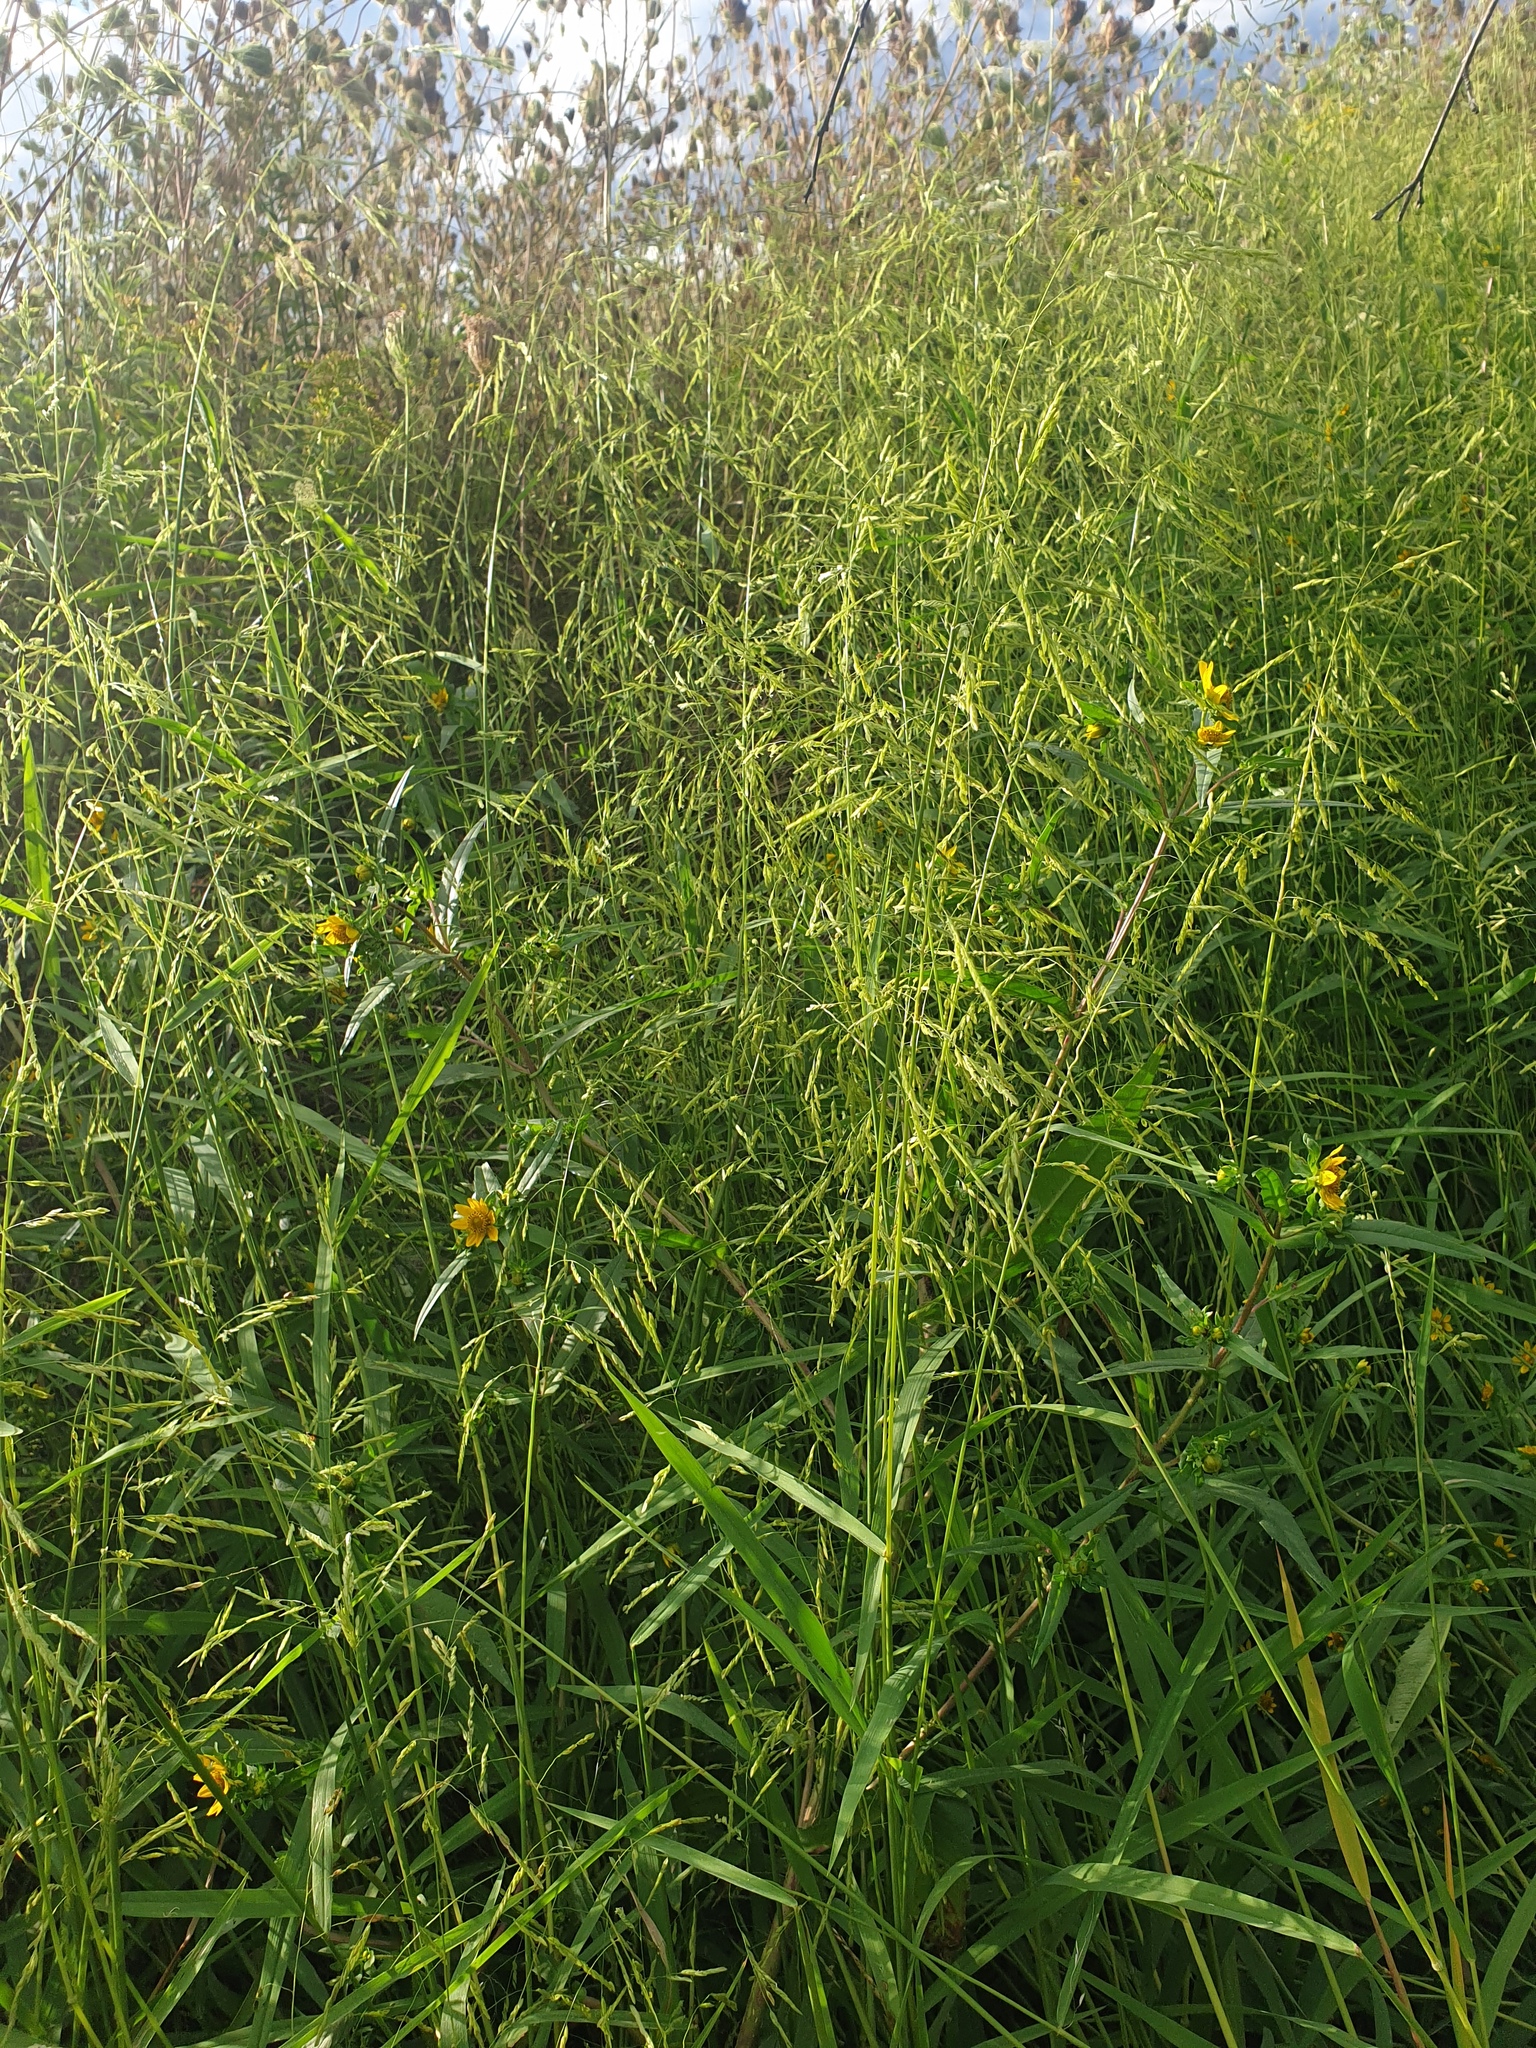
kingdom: Plantae
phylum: Tracheophyta
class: Liliopsida
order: Poales
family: Poaceae
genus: Leersia
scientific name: Leersia oryzoides
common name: Cut-grass
